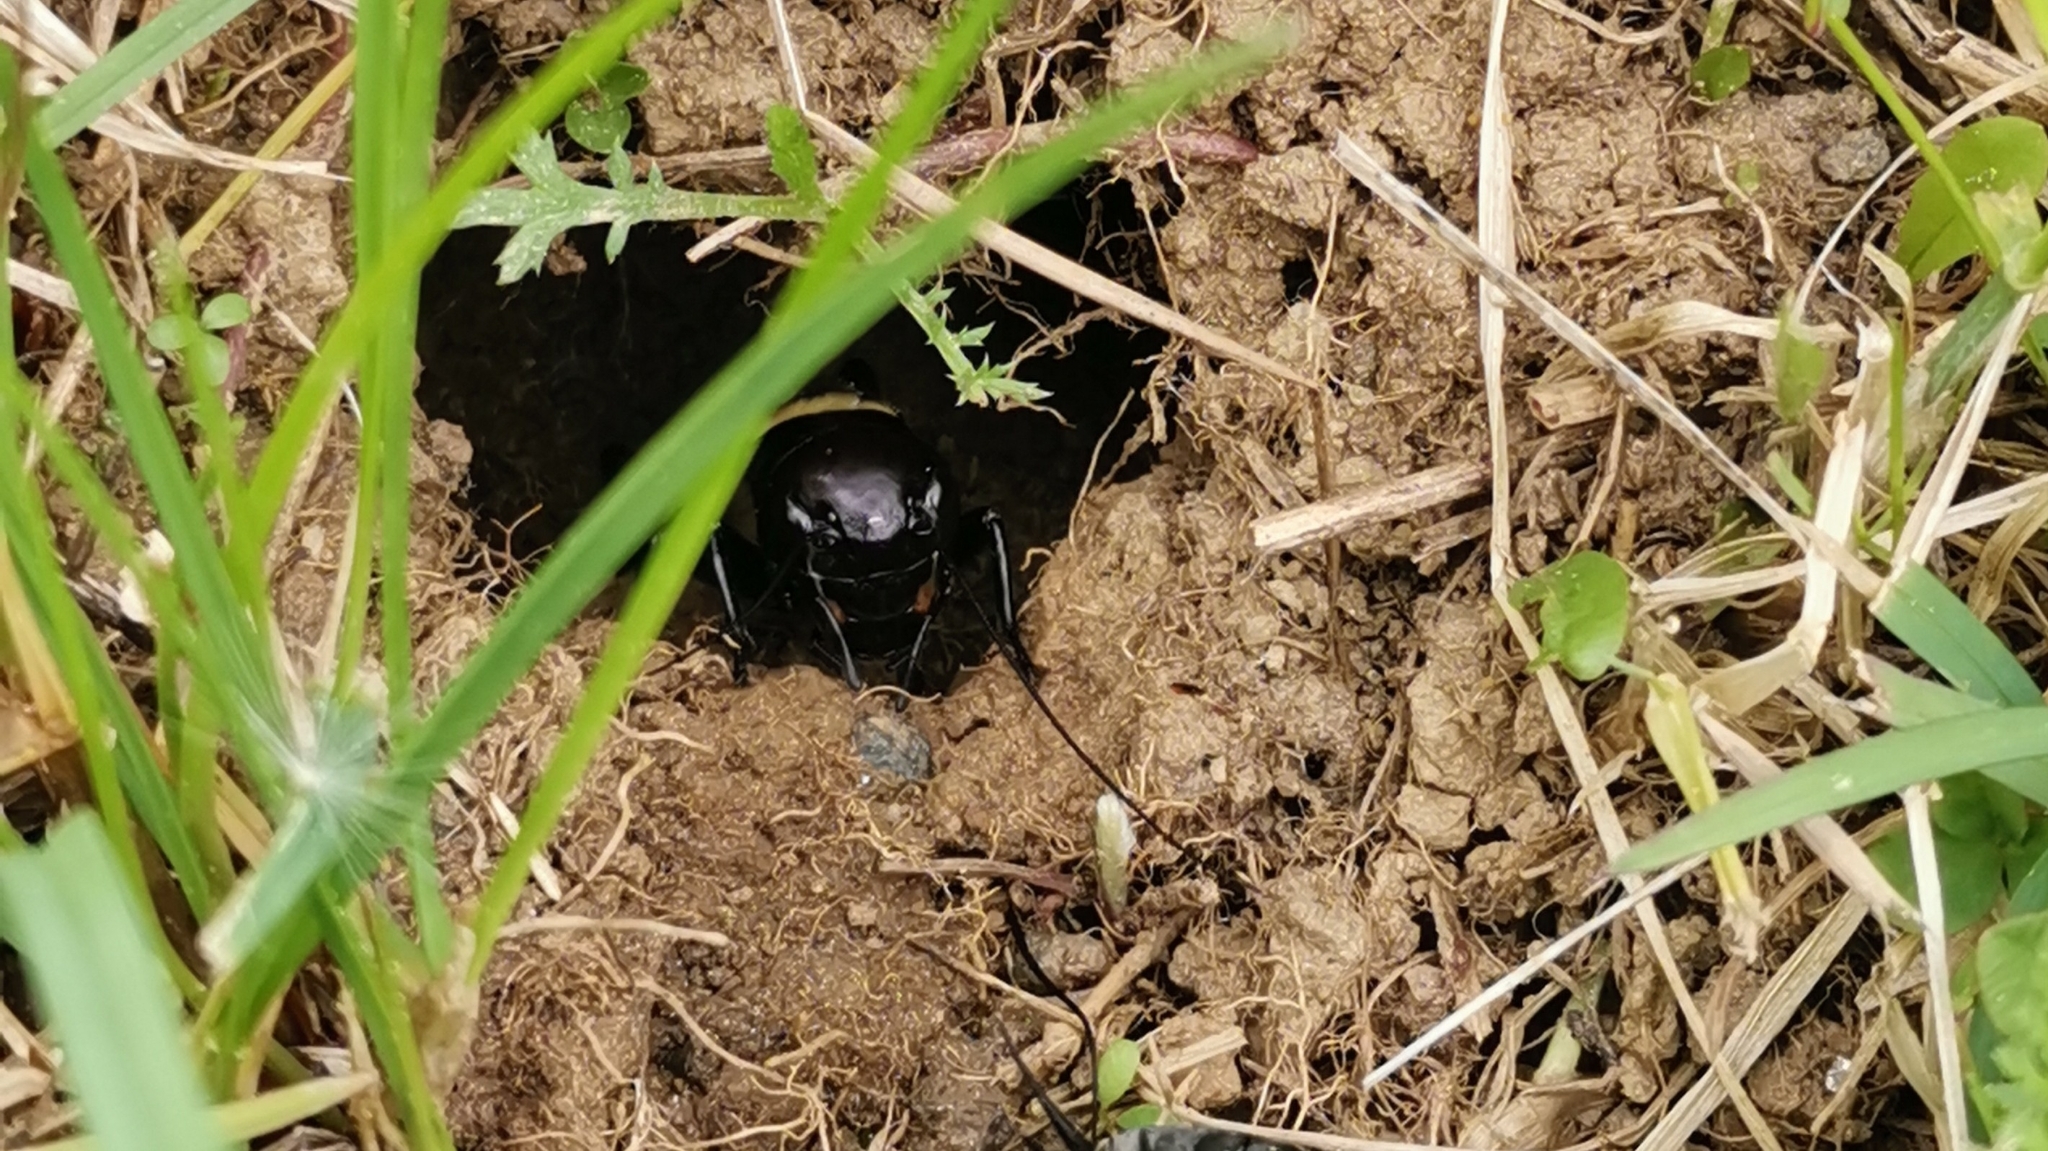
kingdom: Animalia
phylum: Arthropoda
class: Insecta
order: Orthoptera
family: Gryllidae
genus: Gryllus
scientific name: Gryllus campestris
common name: Field cricket
